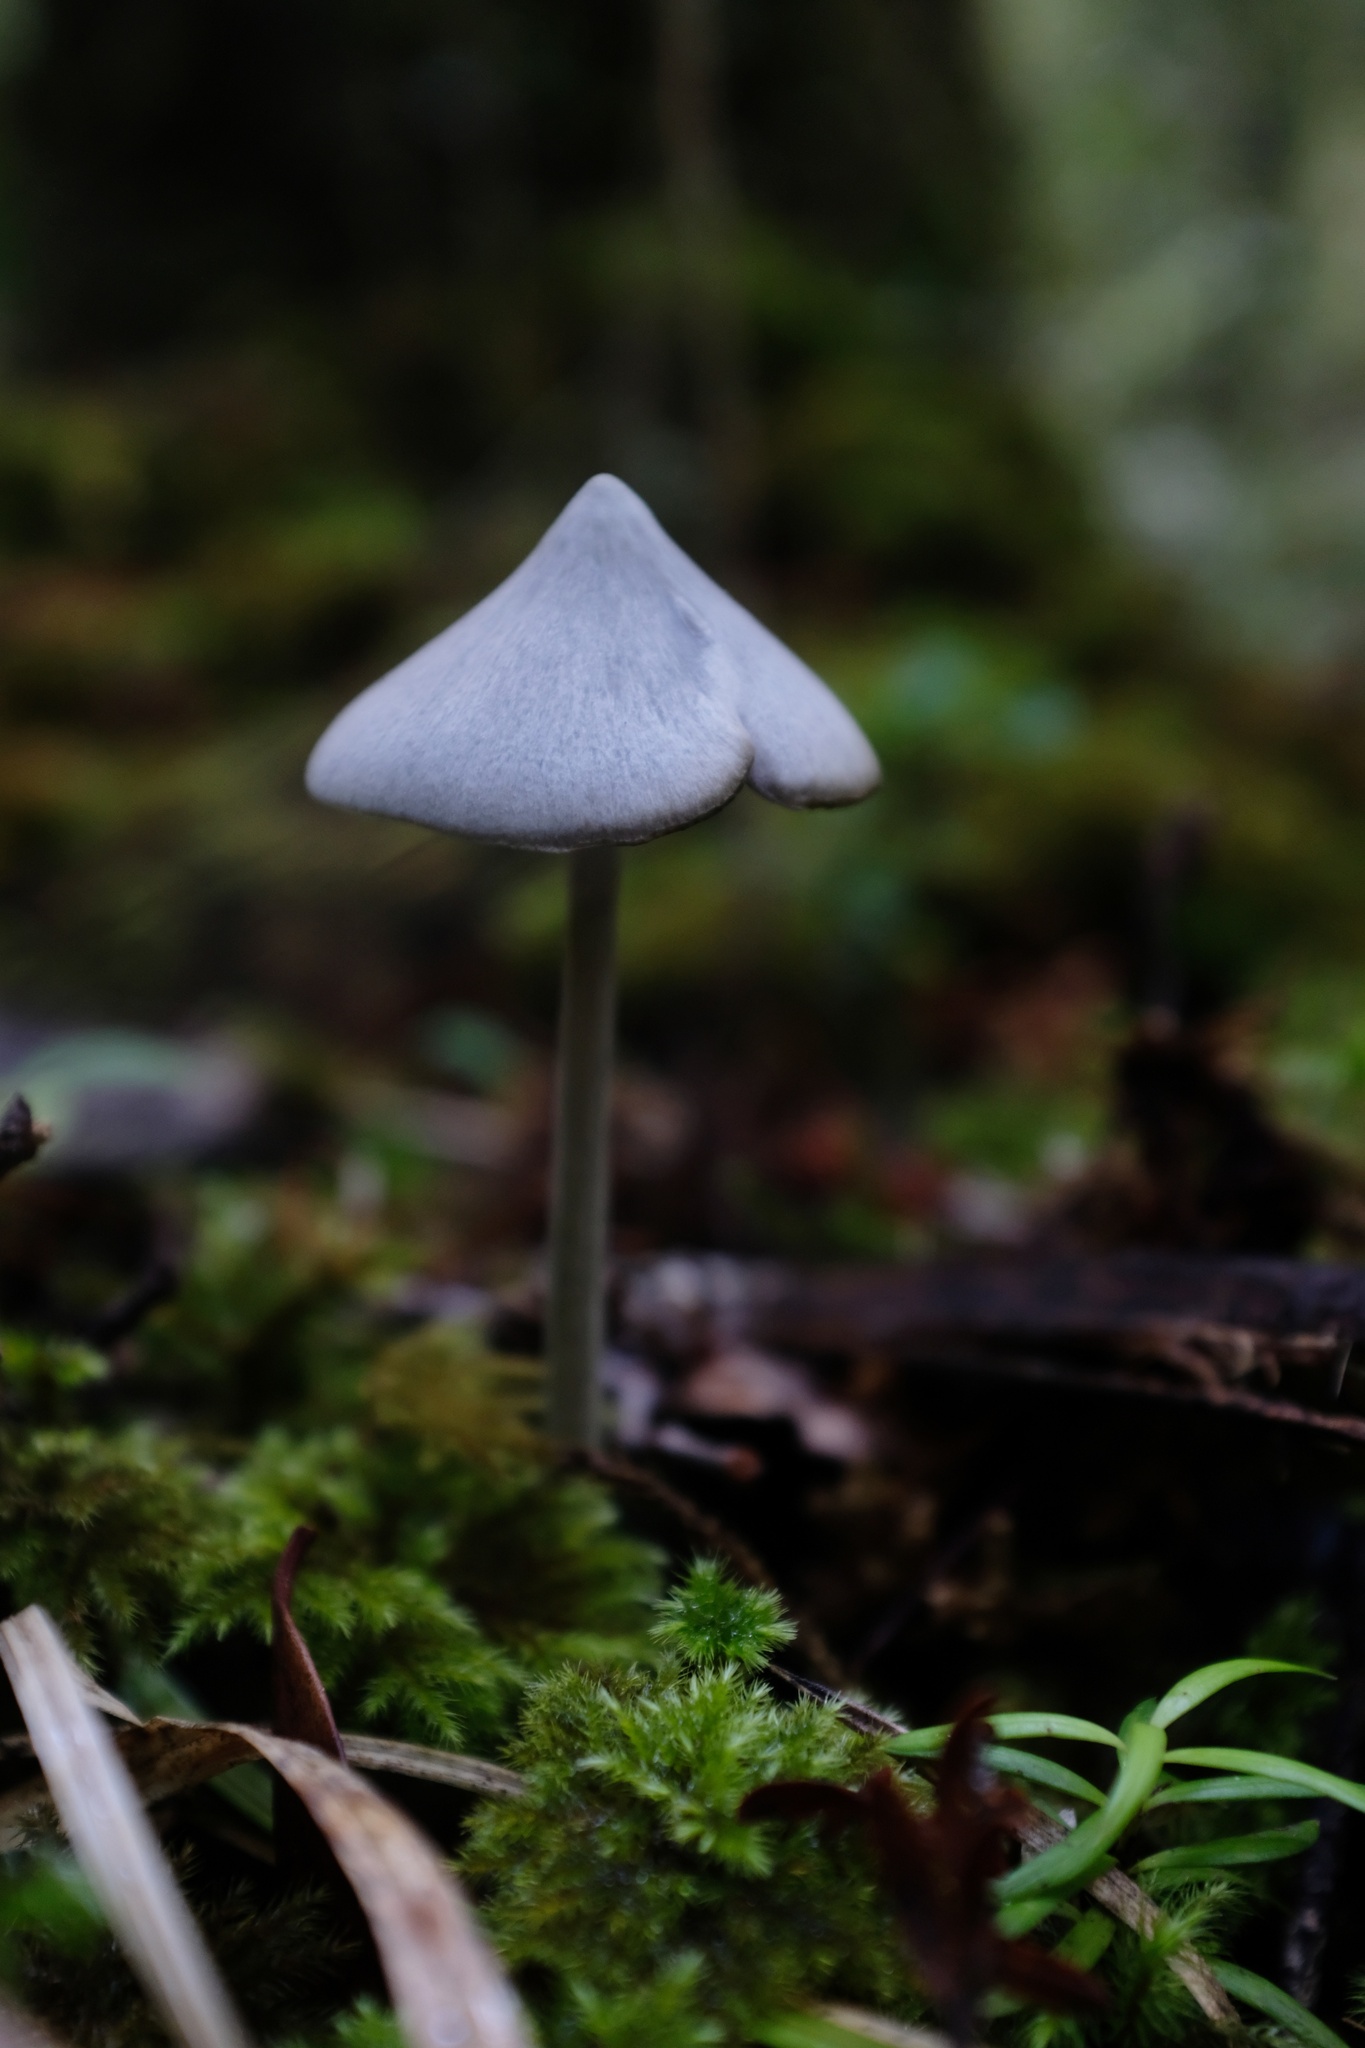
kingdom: Fungi
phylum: Basidiomycota
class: Agaricomycetes
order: Agaricales
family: Entolomataceae
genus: Entoloma
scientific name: Entoloma canoconicum
